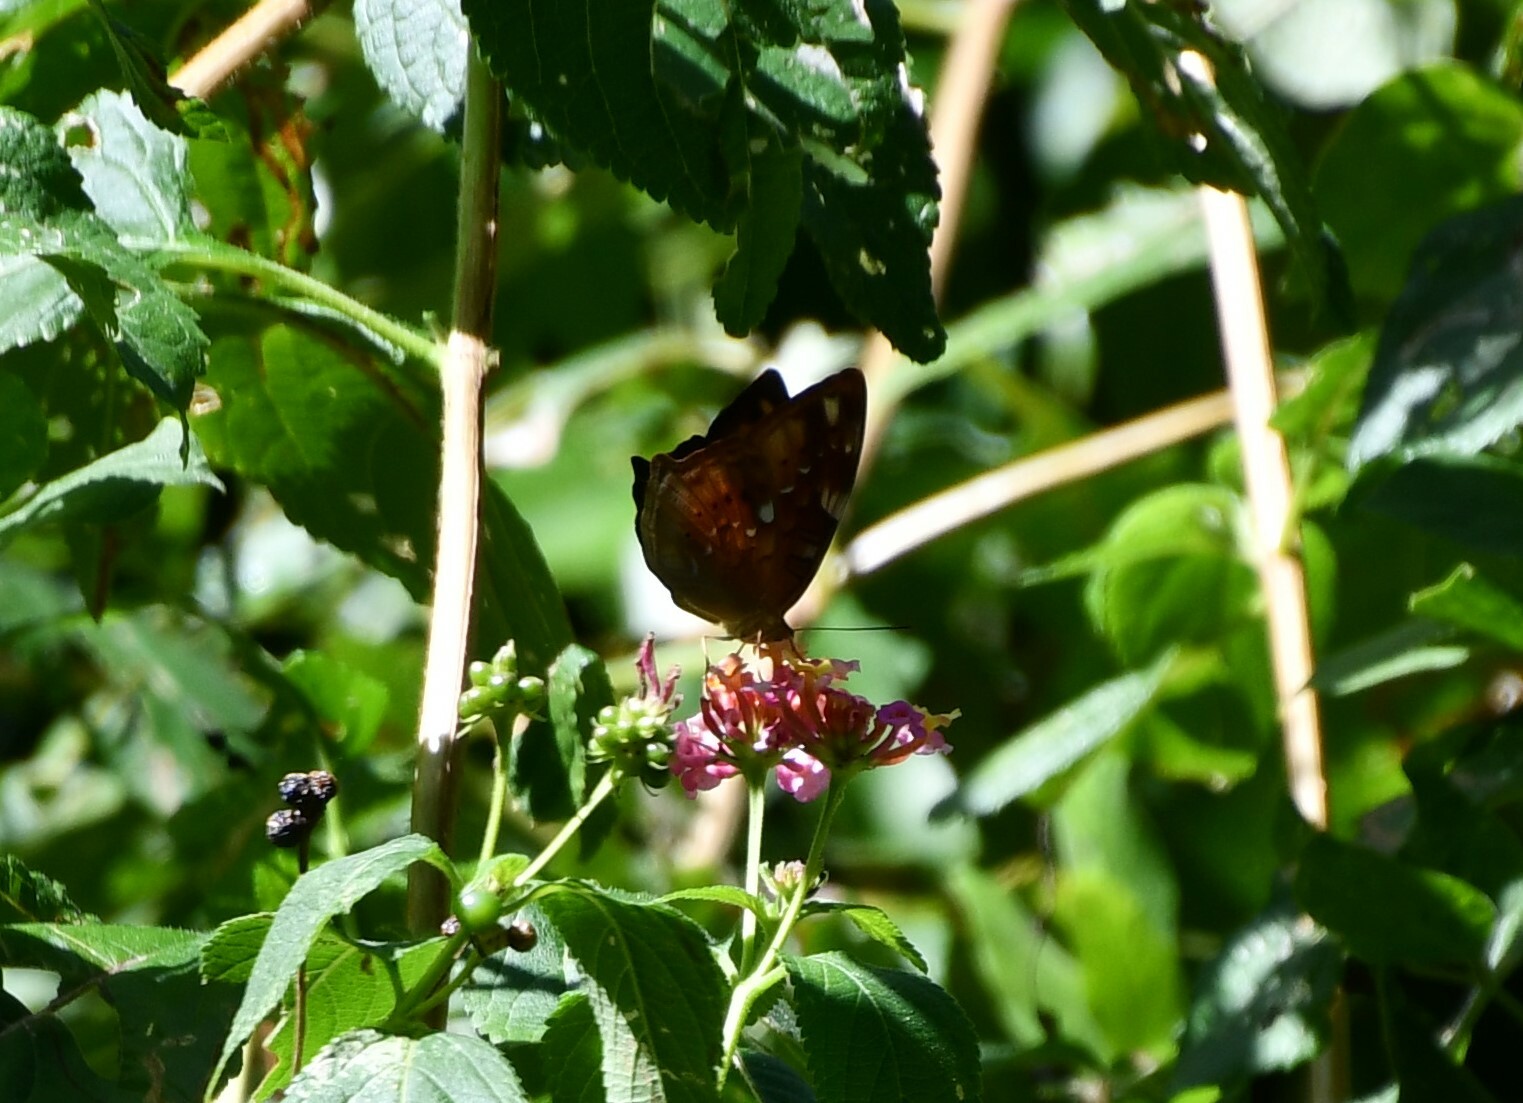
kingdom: Animalia
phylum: Arthropoda
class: Insecta
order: Lepidoptera
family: Nymphalidae
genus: Vagrans
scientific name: Vagrans egista
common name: Tailed rustic
